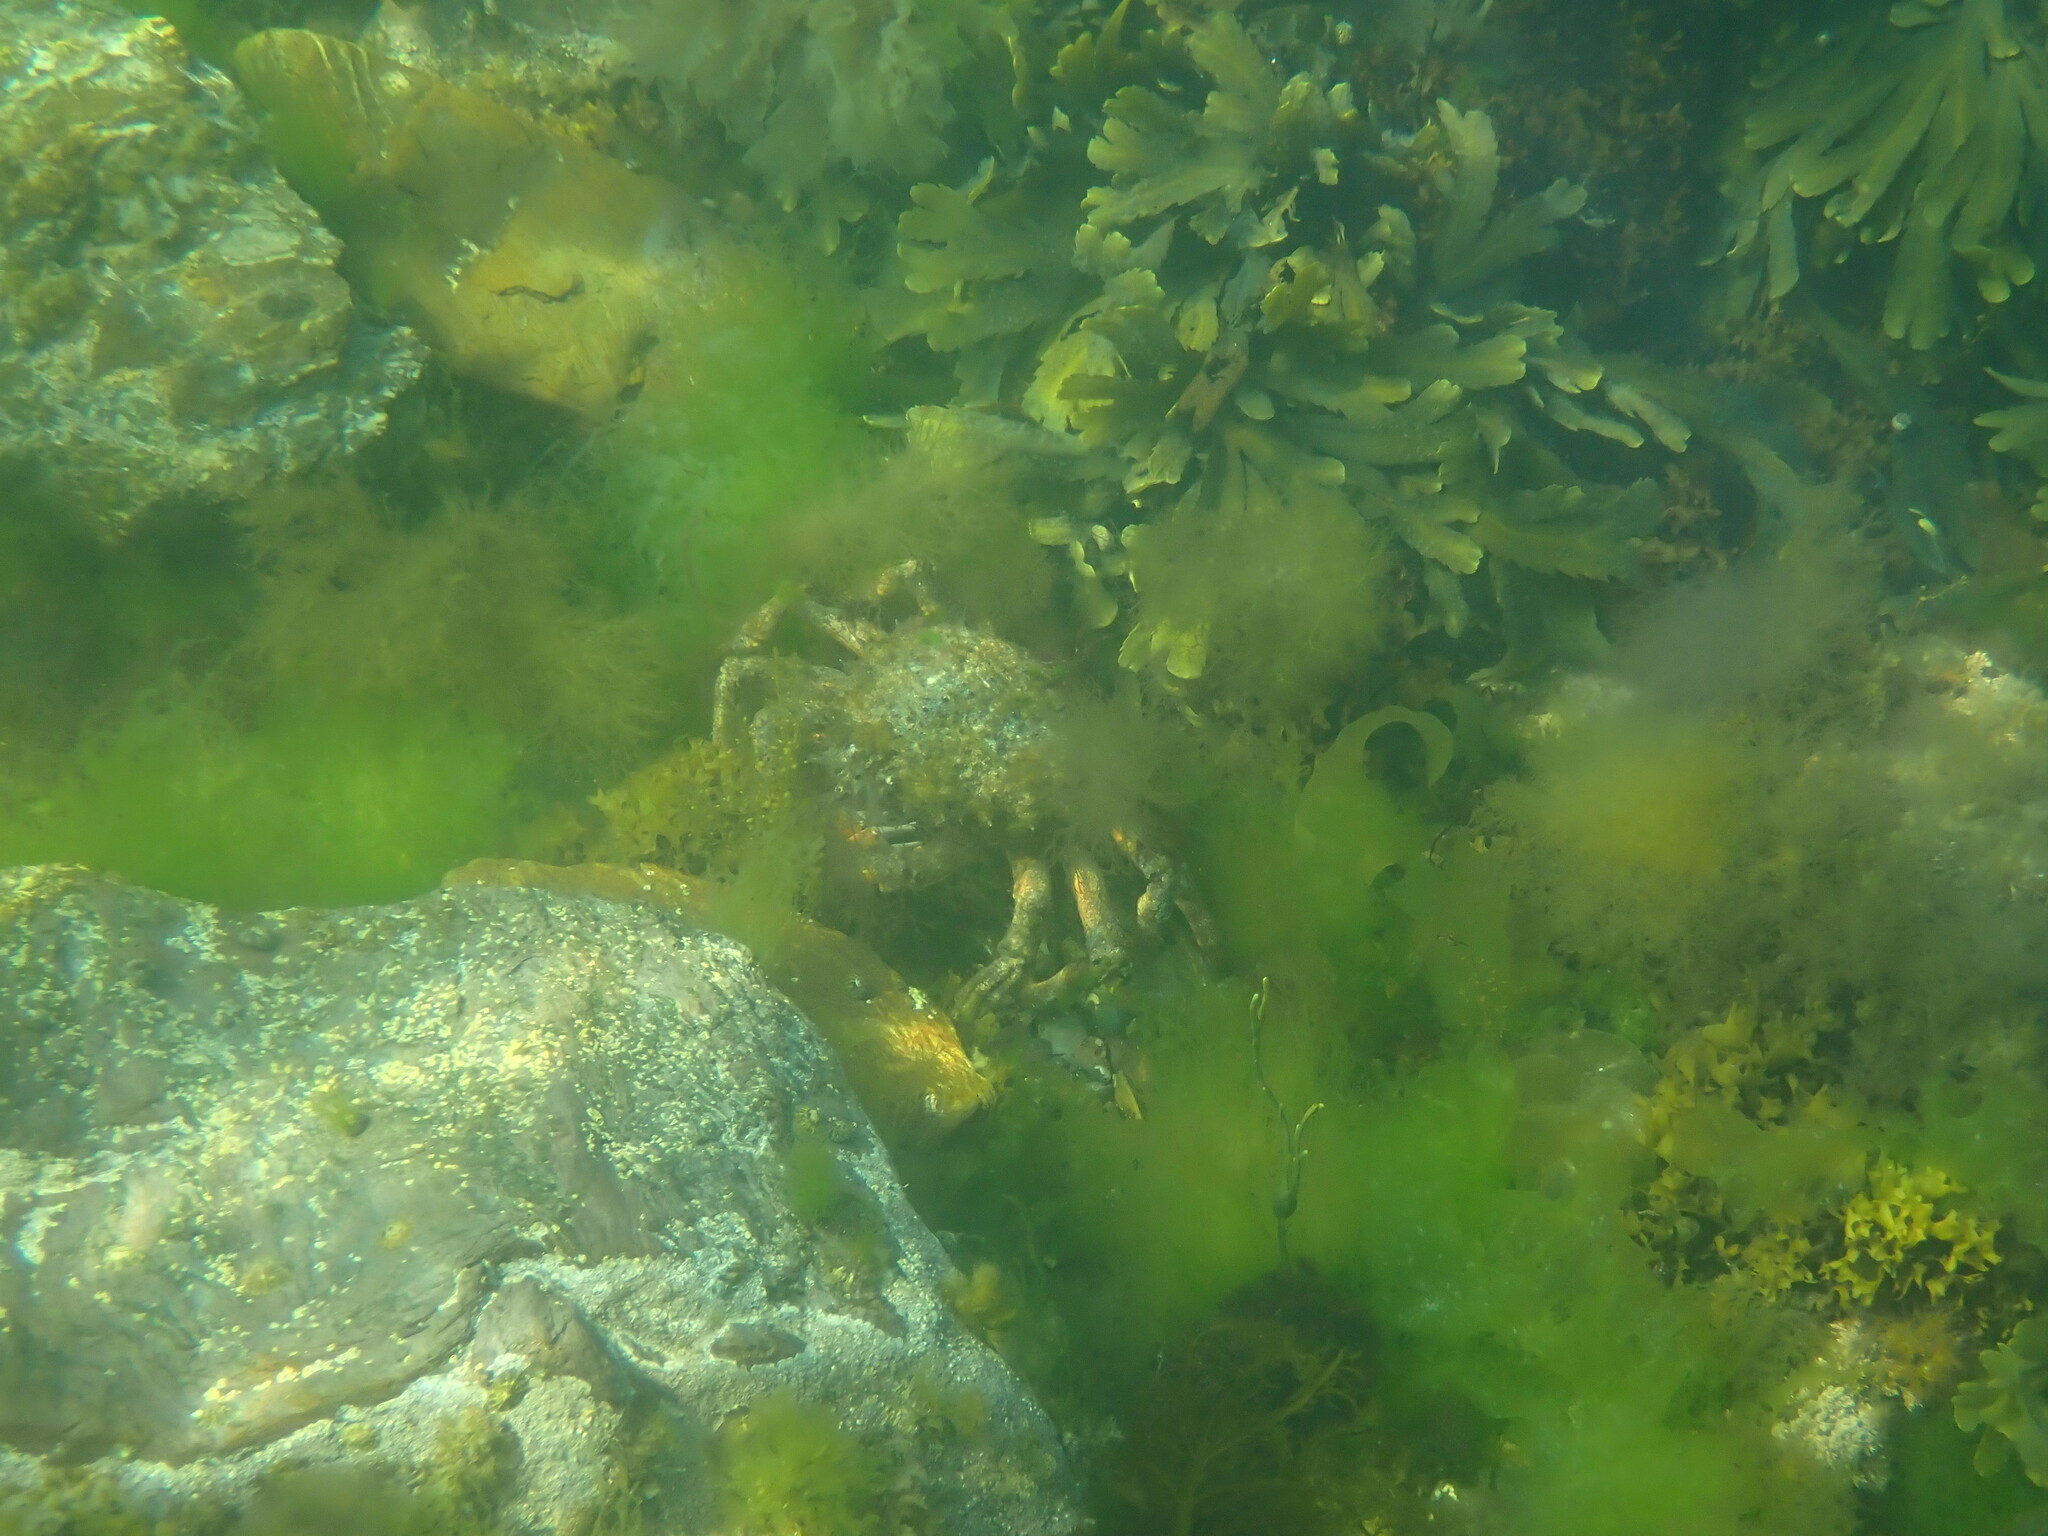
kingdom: Animalia
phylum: Arthropoda
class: Malacostraca
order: Decapoda
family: Majidae
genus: Maja
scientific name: Maja brachydactyla
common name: Common spider crab
